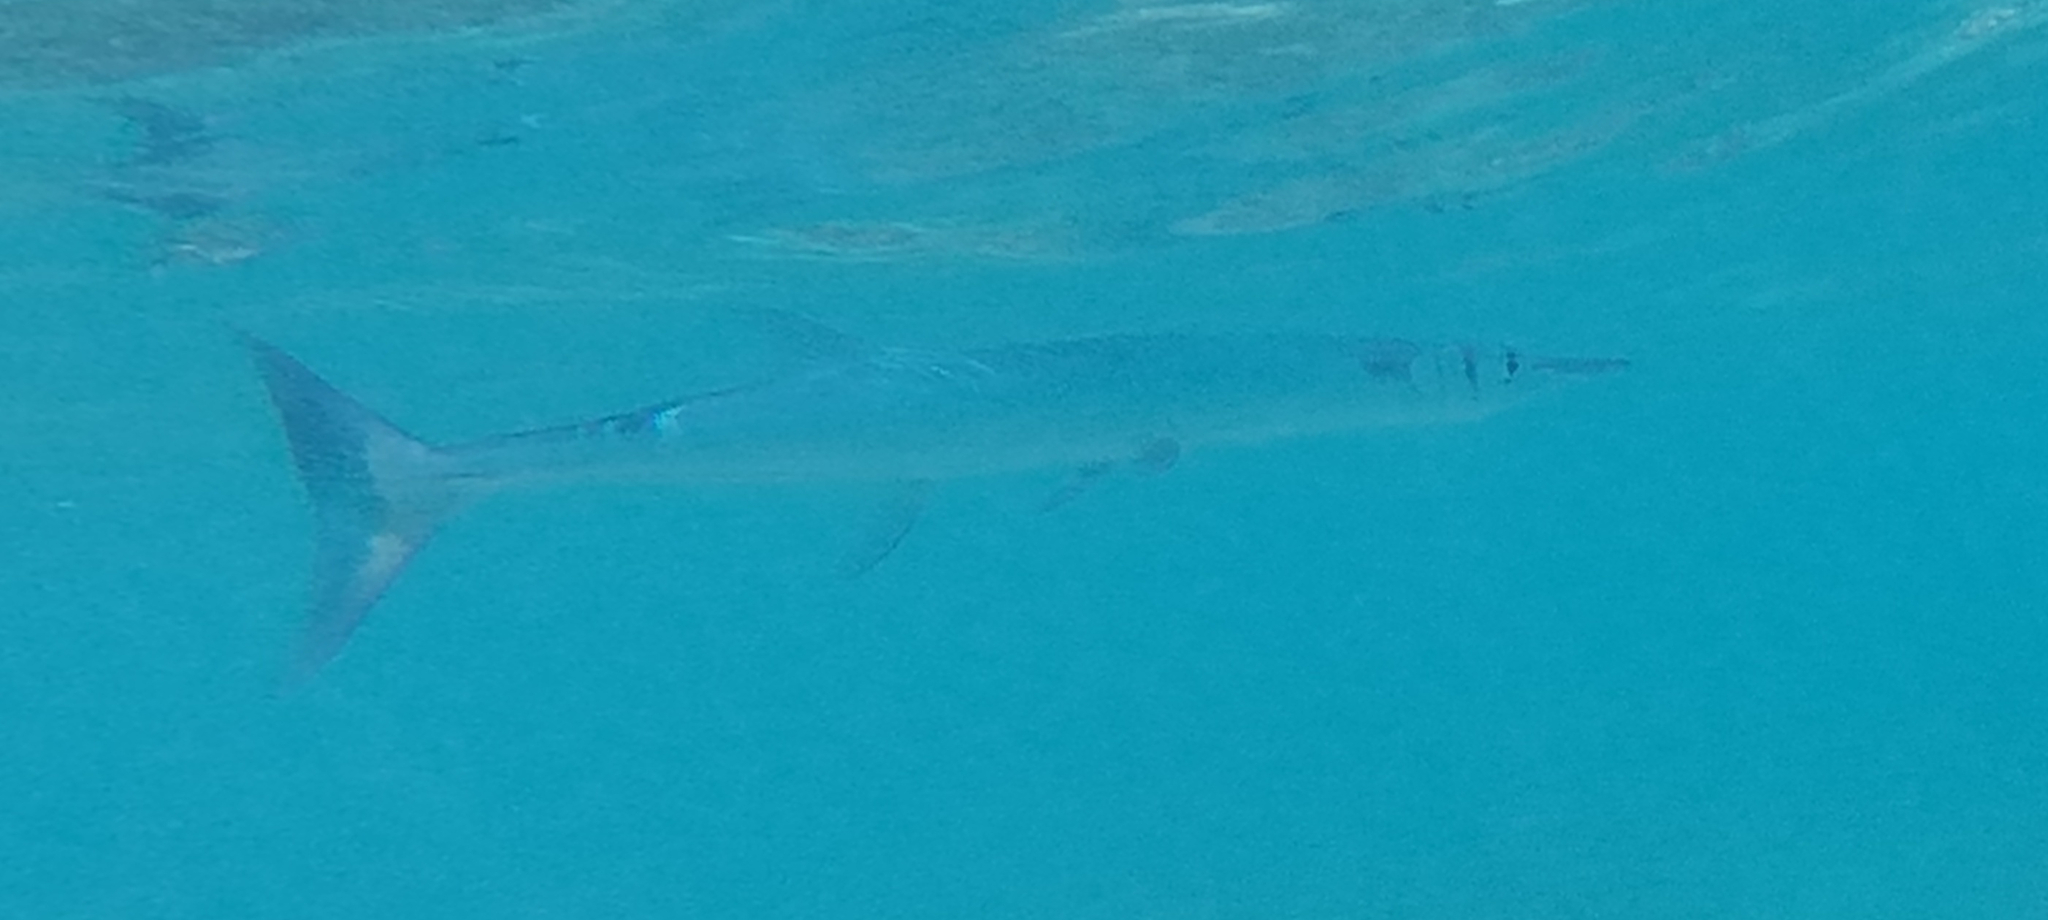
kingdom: Animalia
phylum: Chordata
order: Beloniformes
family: Belonidae
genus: Tylosurus
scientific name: Tylosurus crocodilus
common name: Houndfish
